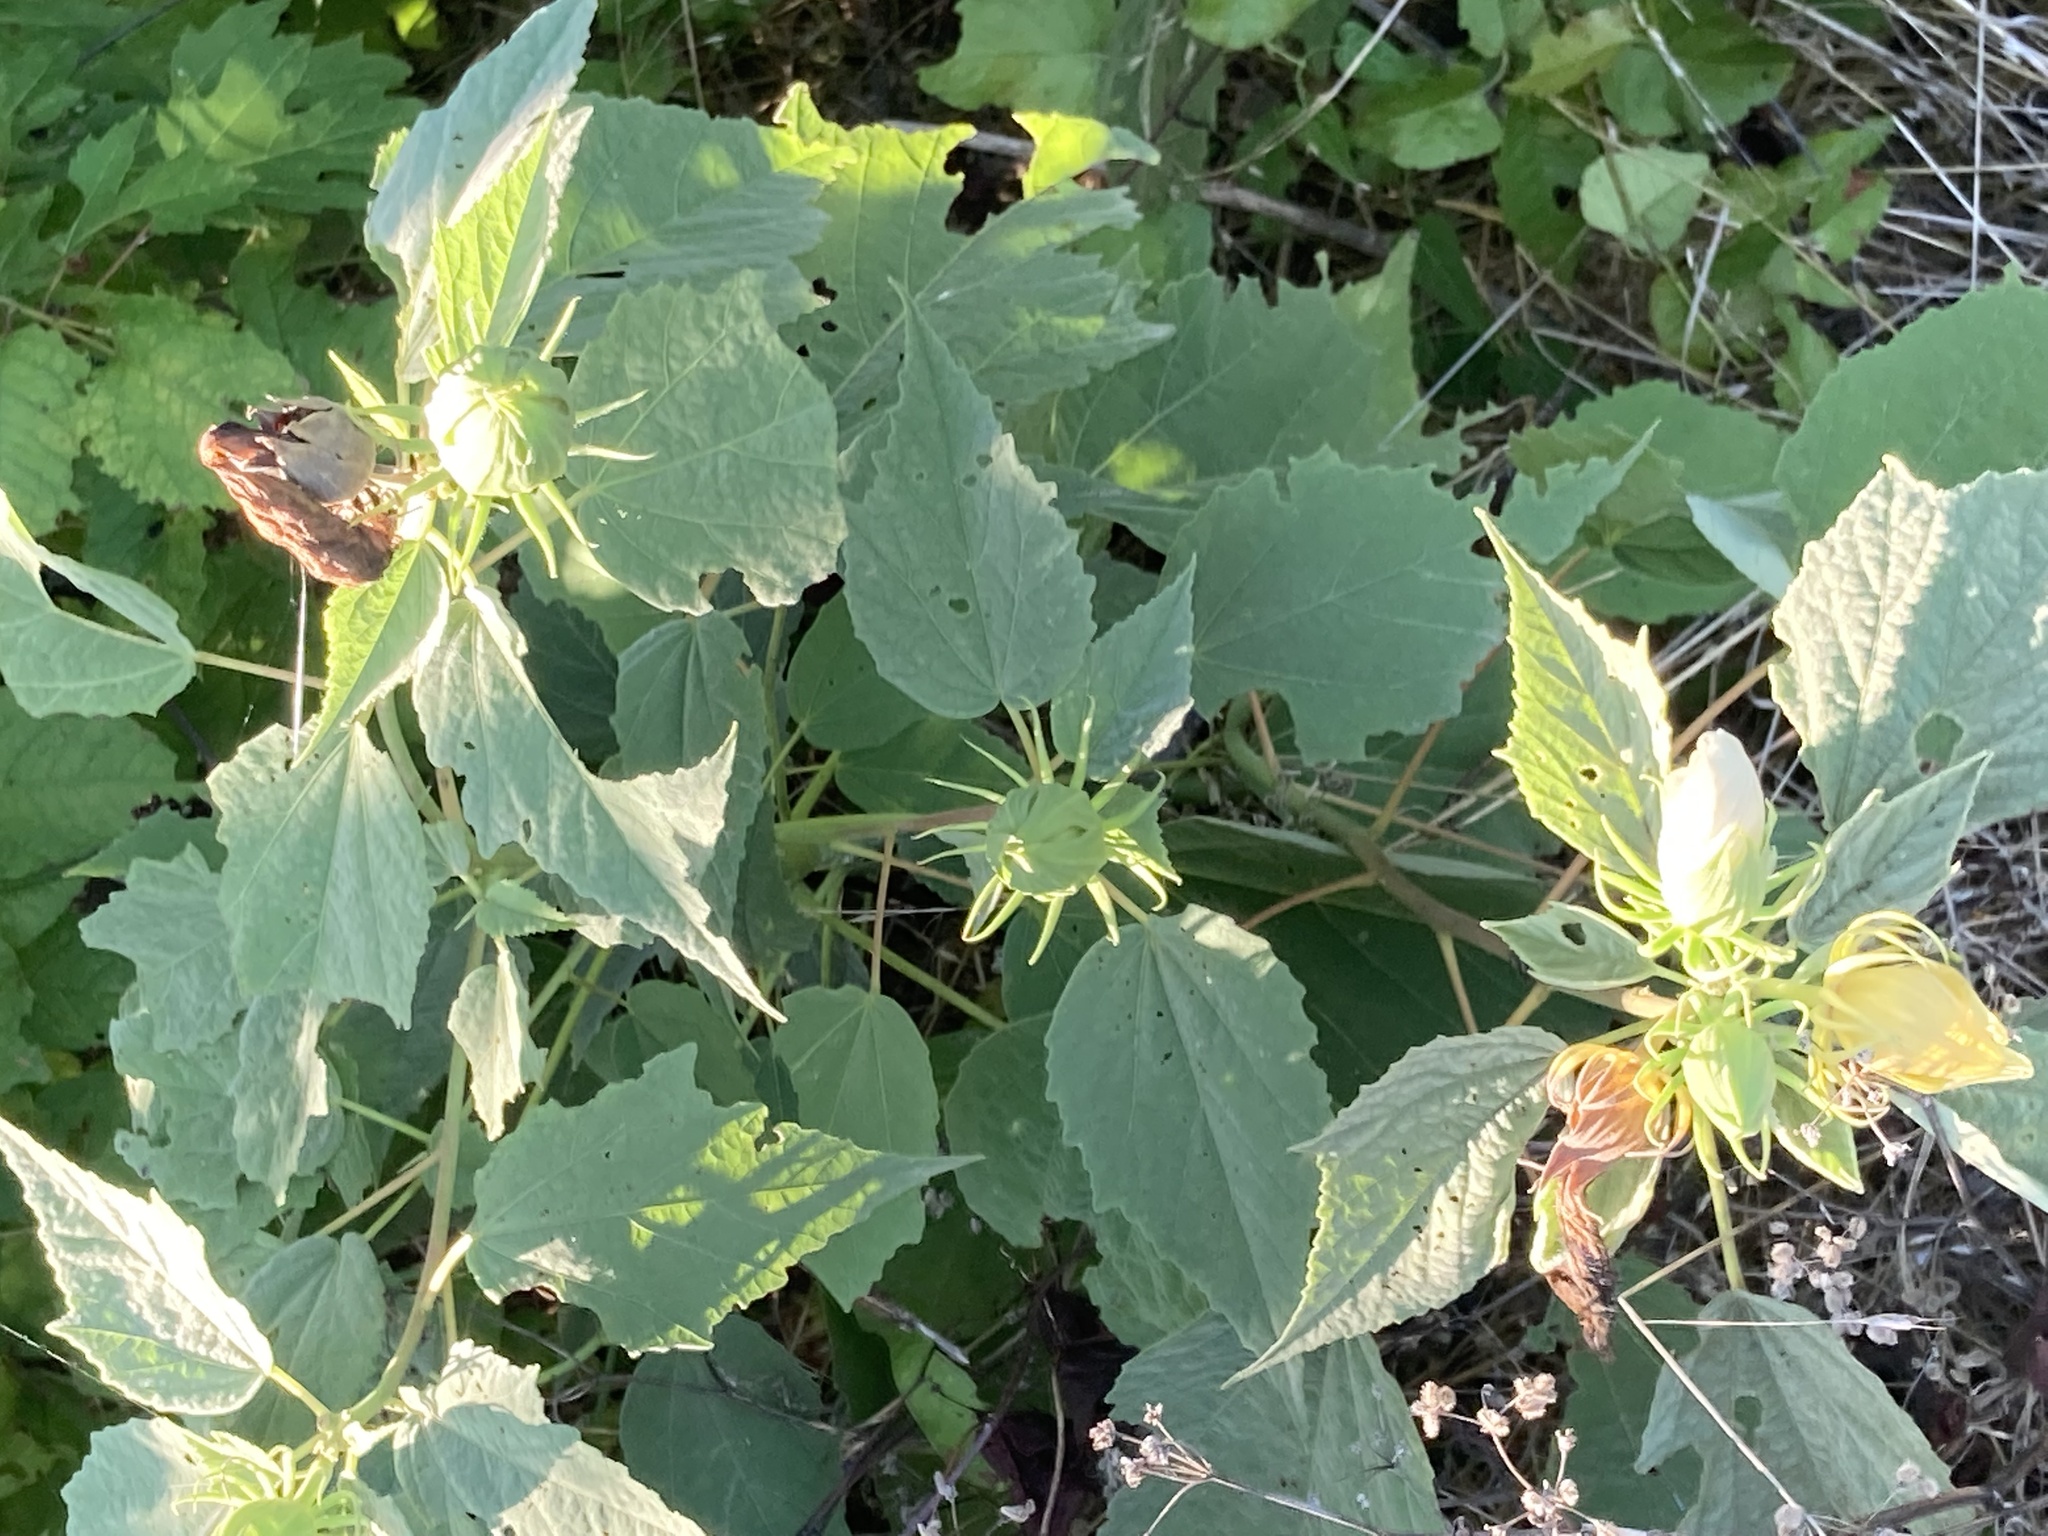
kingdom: Plantae
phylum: Tracheophyta
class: Magnoliopsida
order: Malvales
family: Malvaceae
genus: Hibiscus
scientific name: Hibiscus moscheutos
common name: Common rose-mallow
